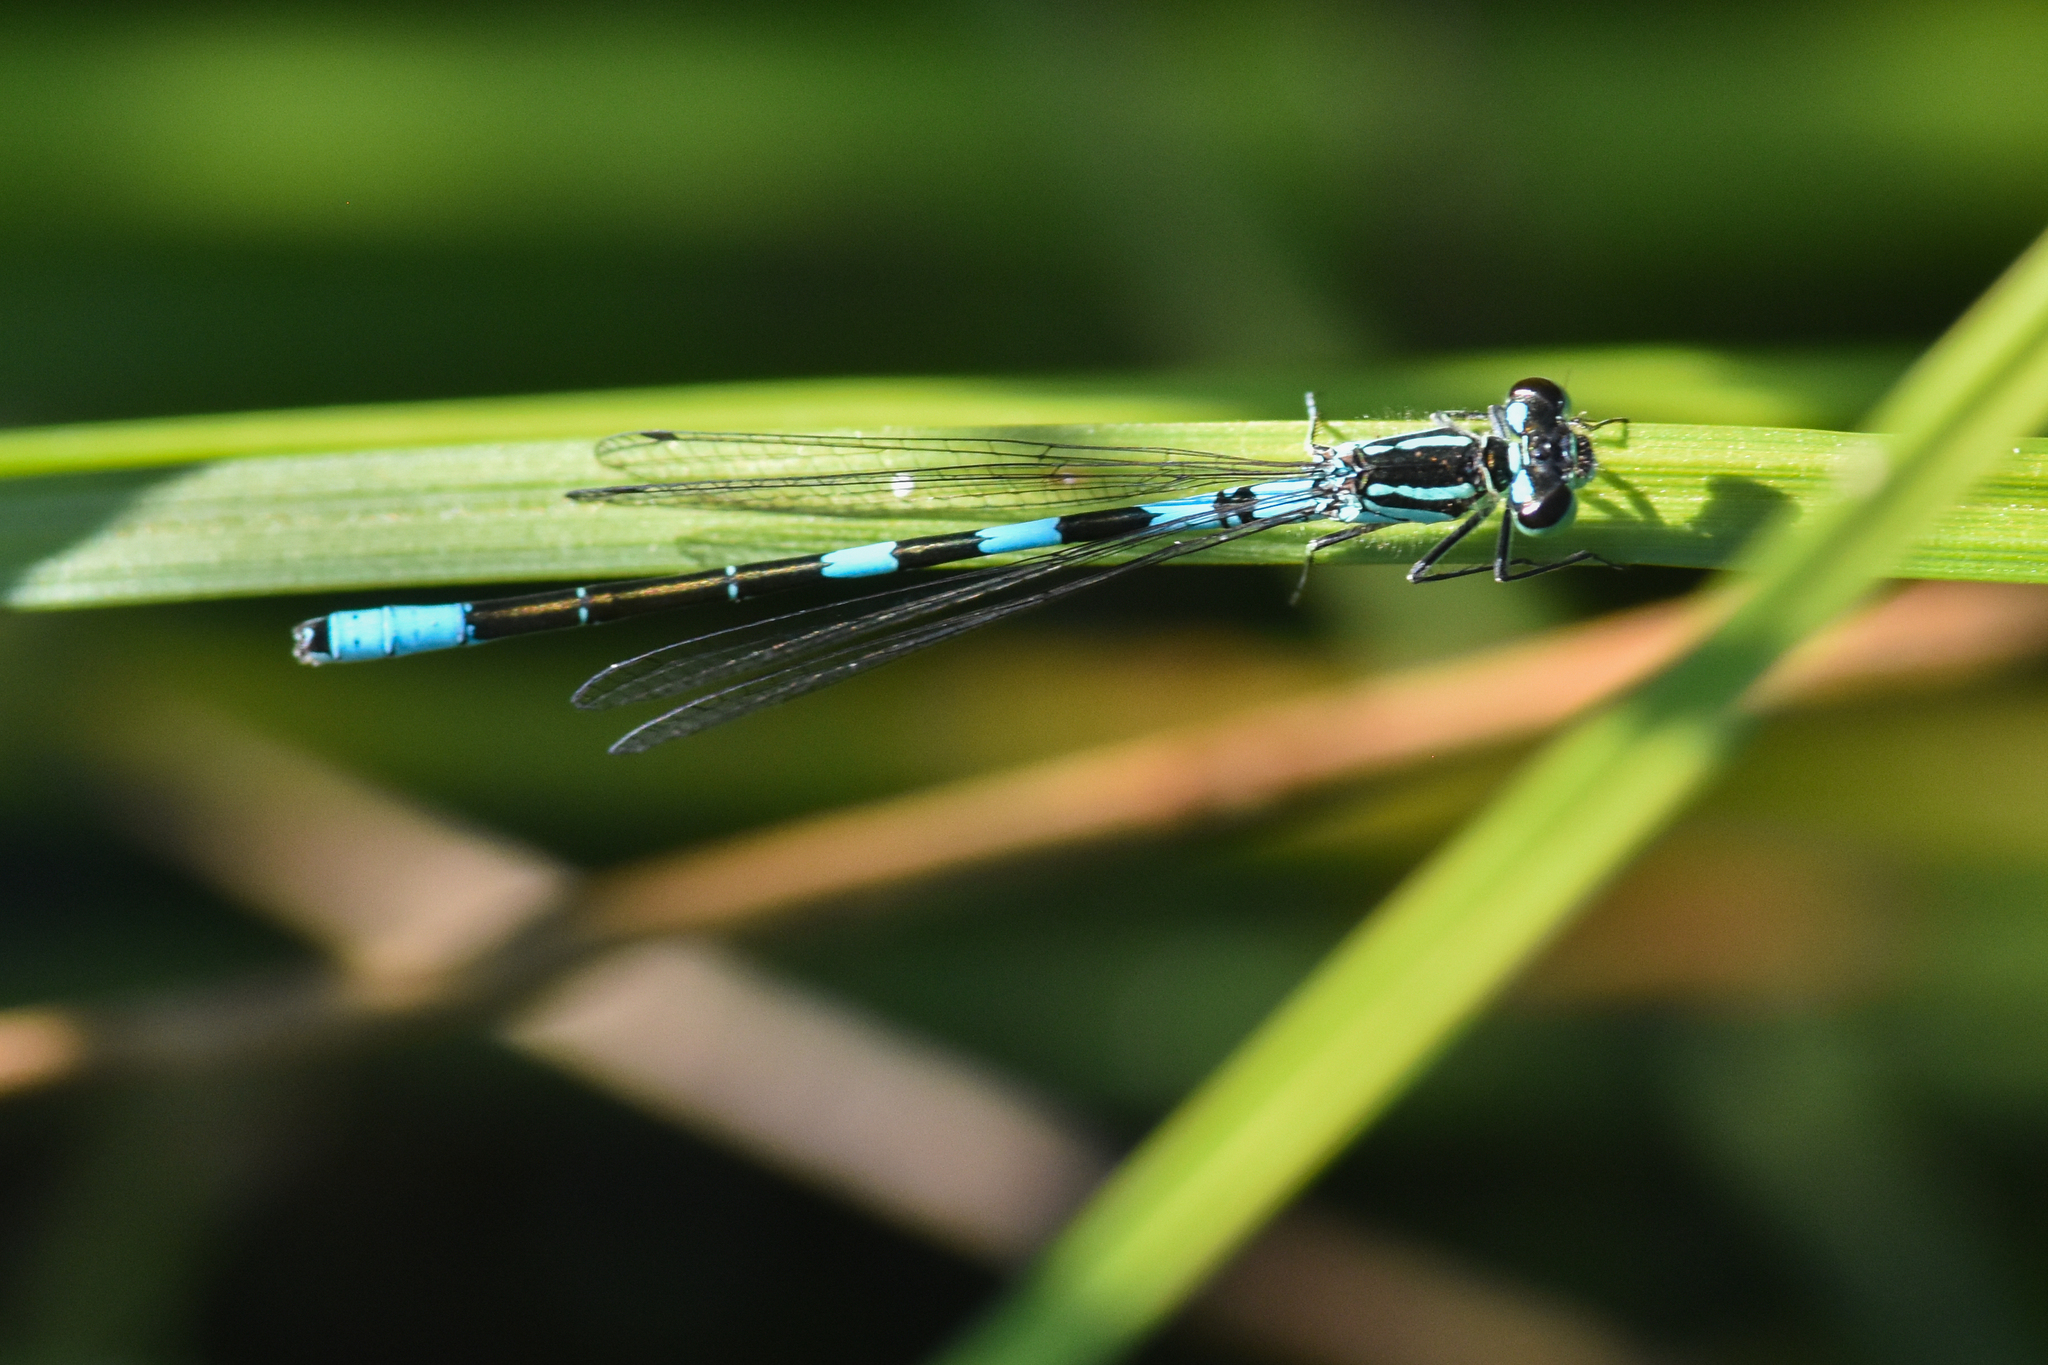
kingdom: Animalia
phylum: Arthropoda
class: Insecta
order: Odonata
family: Coenagrionidae
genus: Coenagrion
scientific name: Coenagrion resolutum
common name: Taiga bluet
